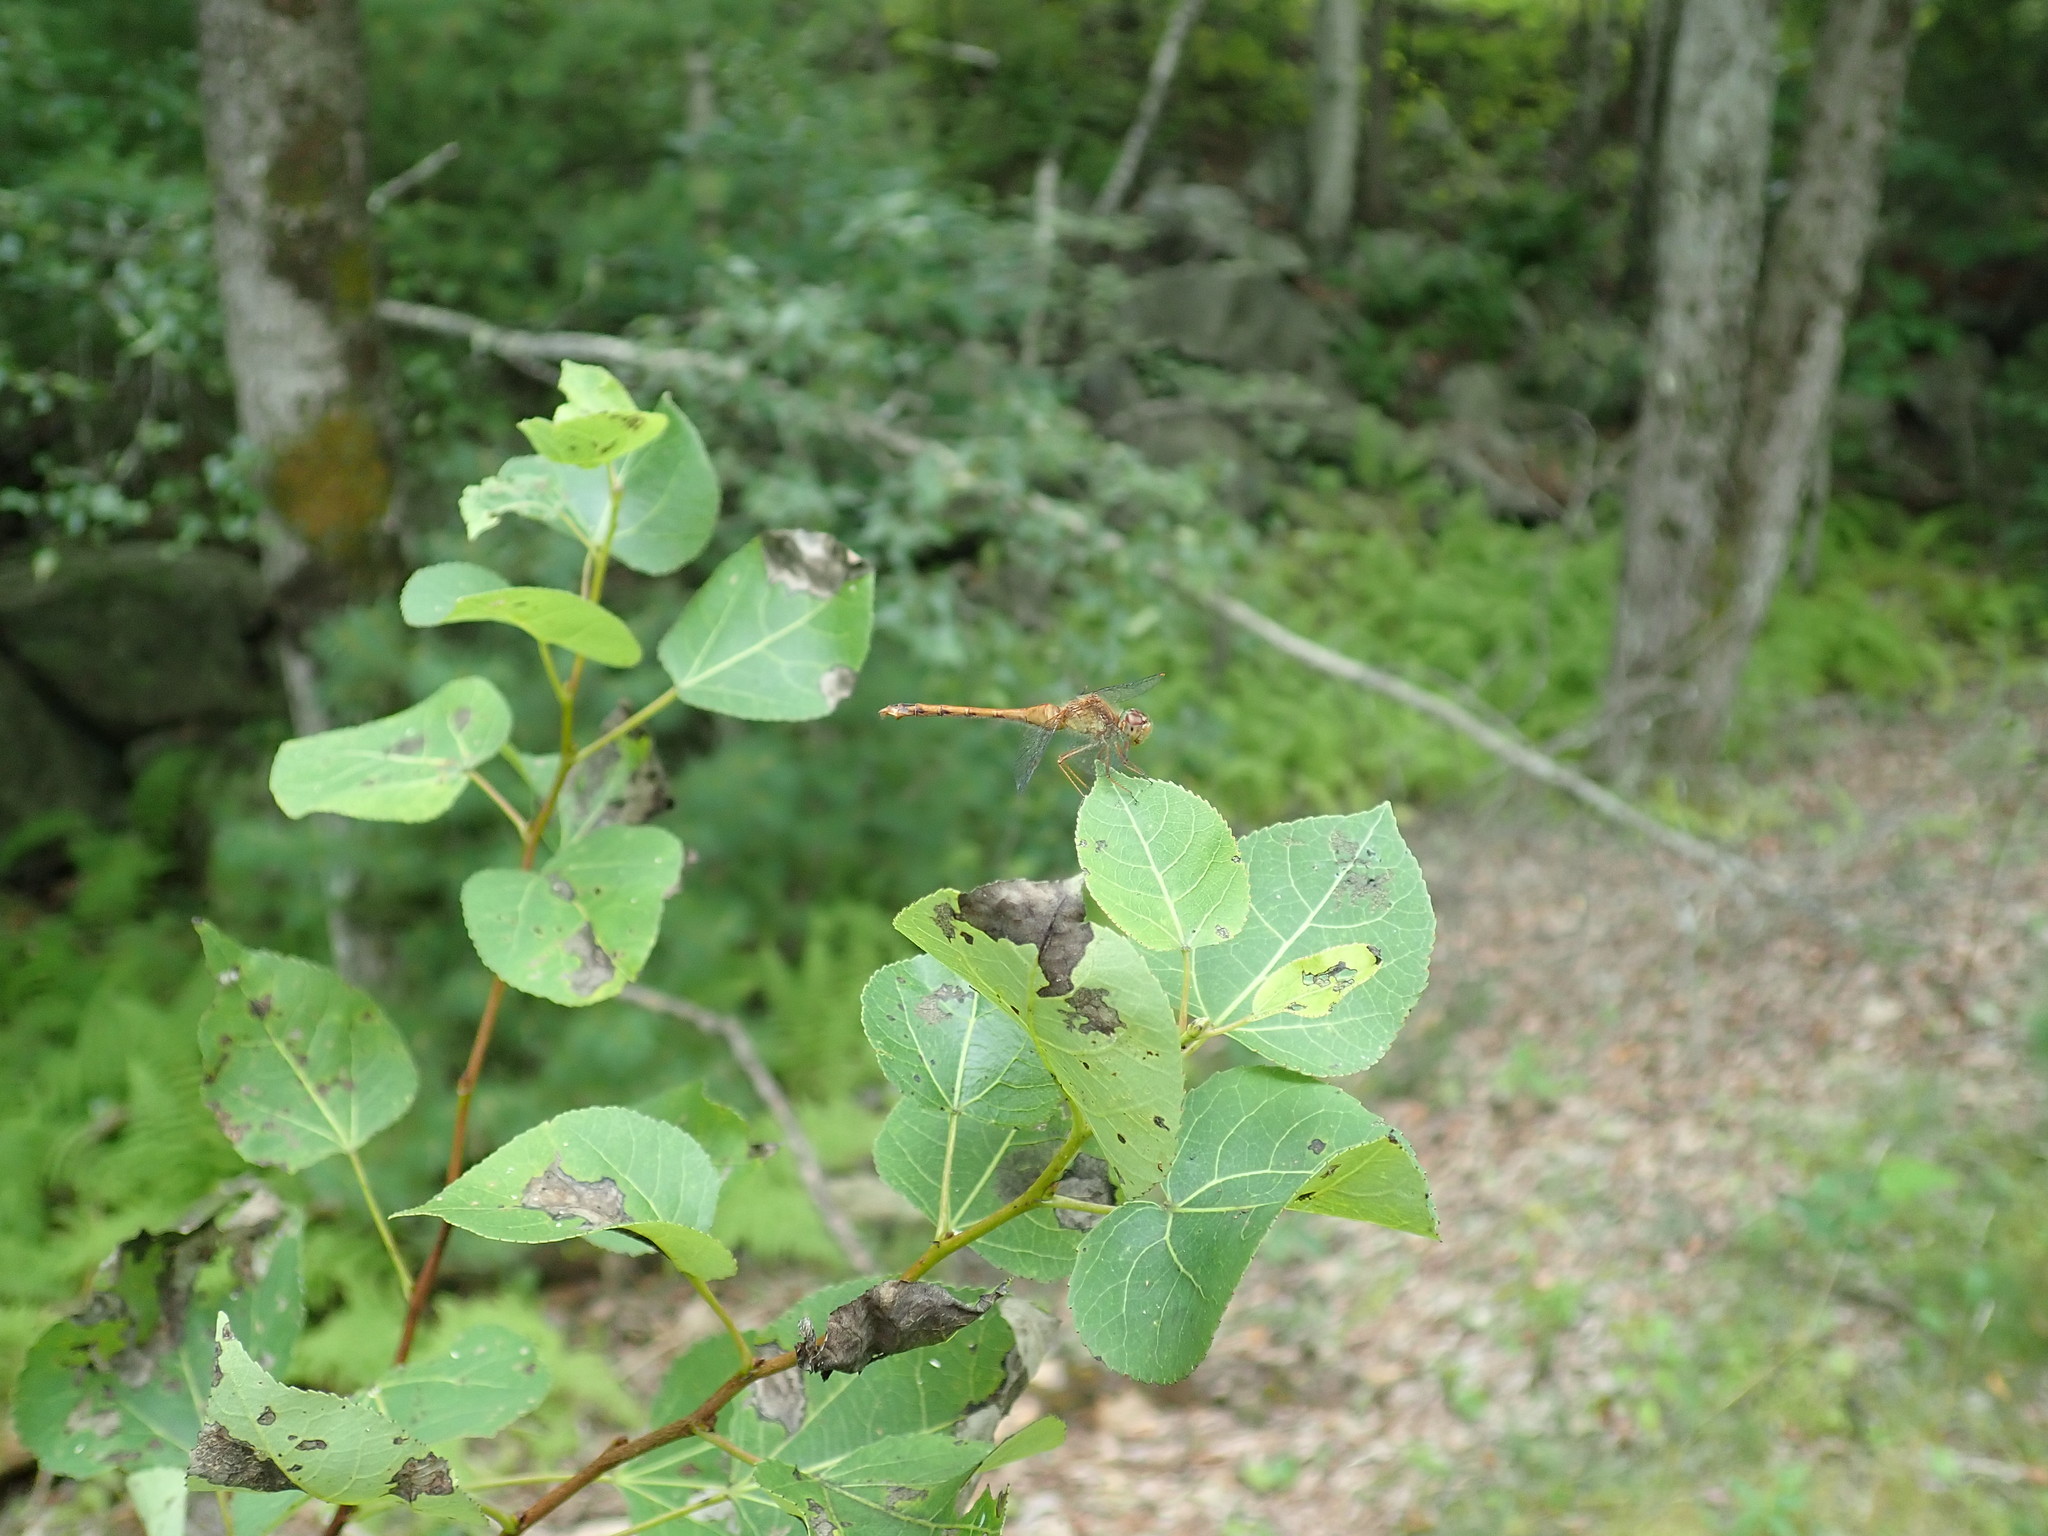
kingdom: Animalia
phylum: Arthropoda
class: Insecta
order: Odonata
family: Libellulidae
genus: Sympetrum
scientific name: Sympetrum vicinum
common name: Autumn meadowhawk
